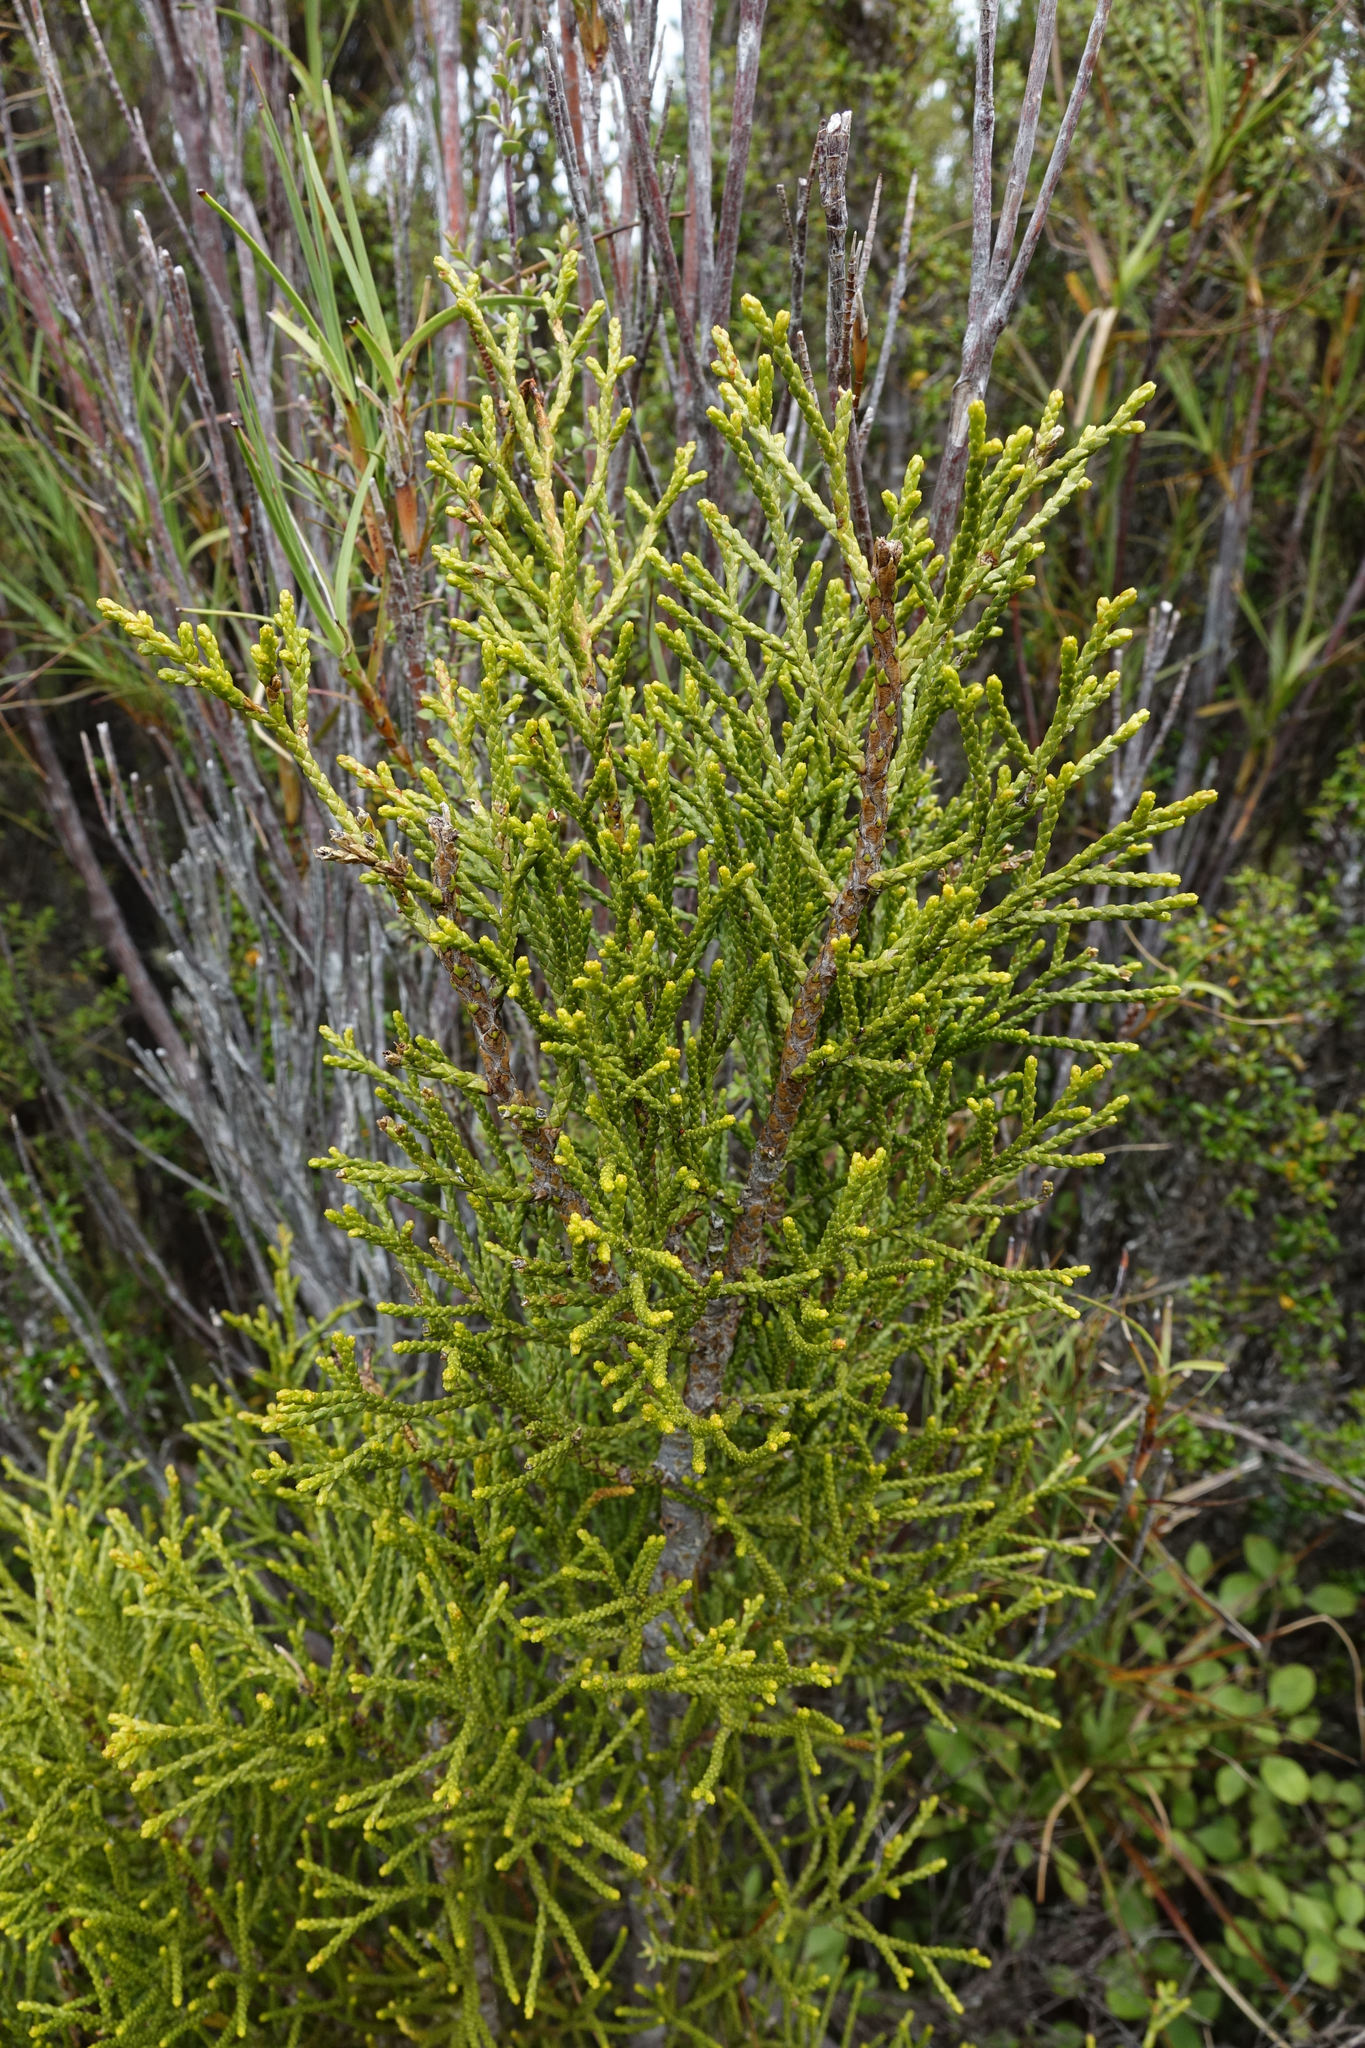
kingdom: Plantae
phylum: Tracheophyta
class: Pinopsida
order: Pinales
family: Podocarpaceae
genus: Halocarpus
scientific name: Halocarpus biformis
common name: Alpine tarwood
